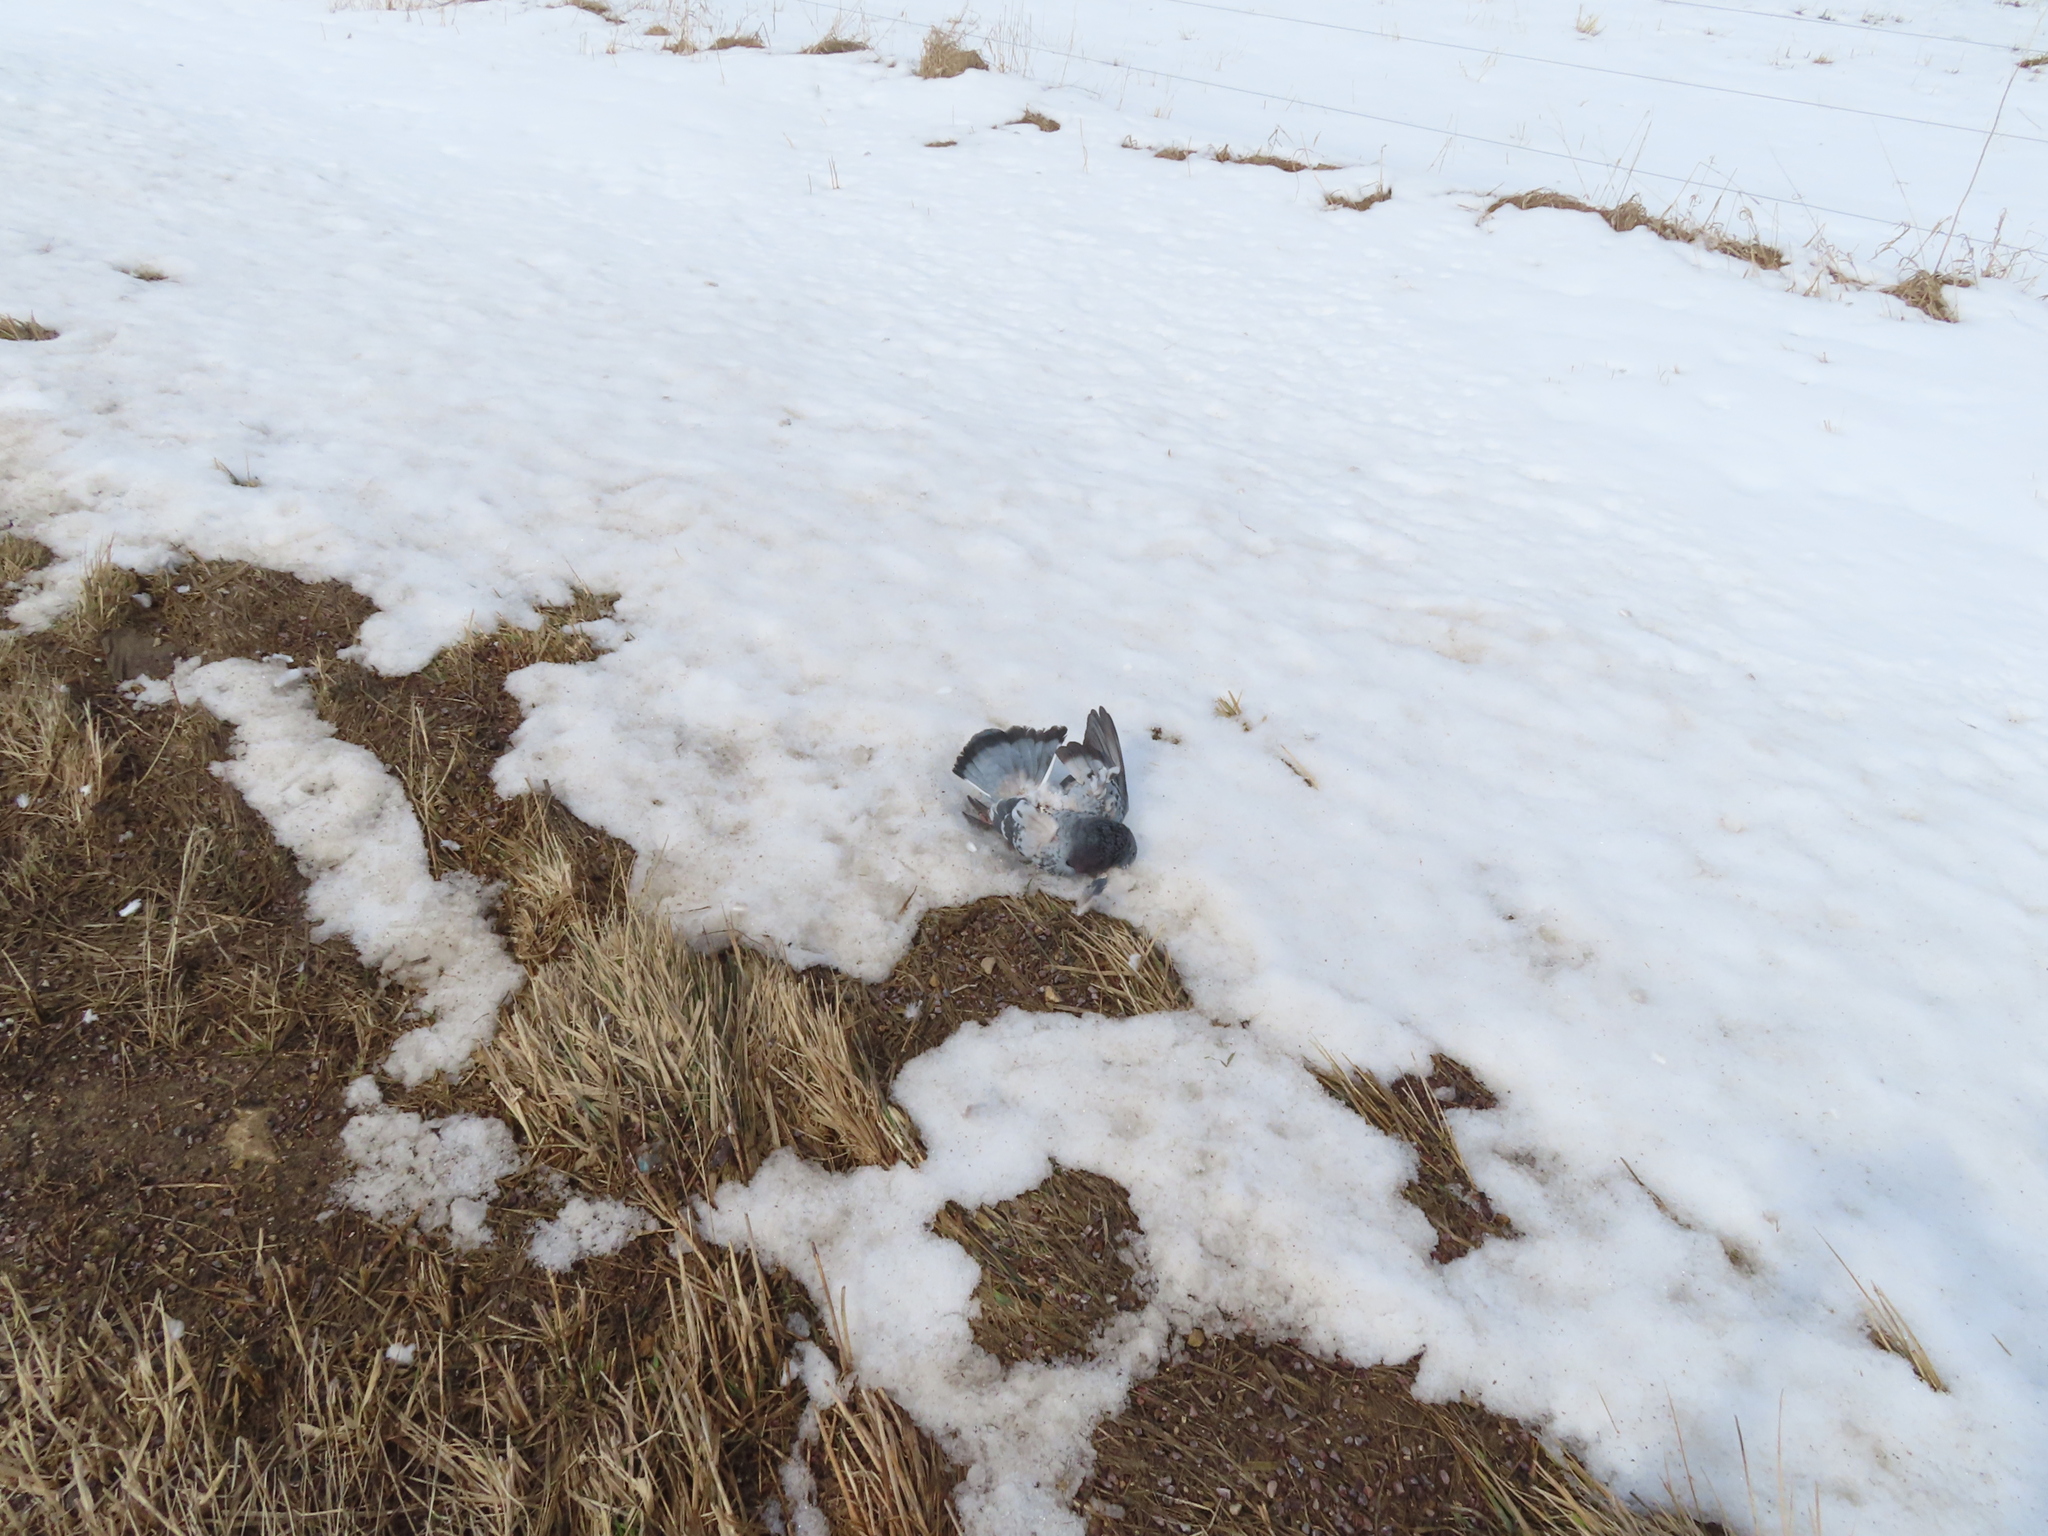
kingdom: Animalia
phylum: Chordata
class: Aves
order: Columbiformes
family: Columbidae
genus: Columba
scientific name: Columba livia
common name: Rock pigeon
